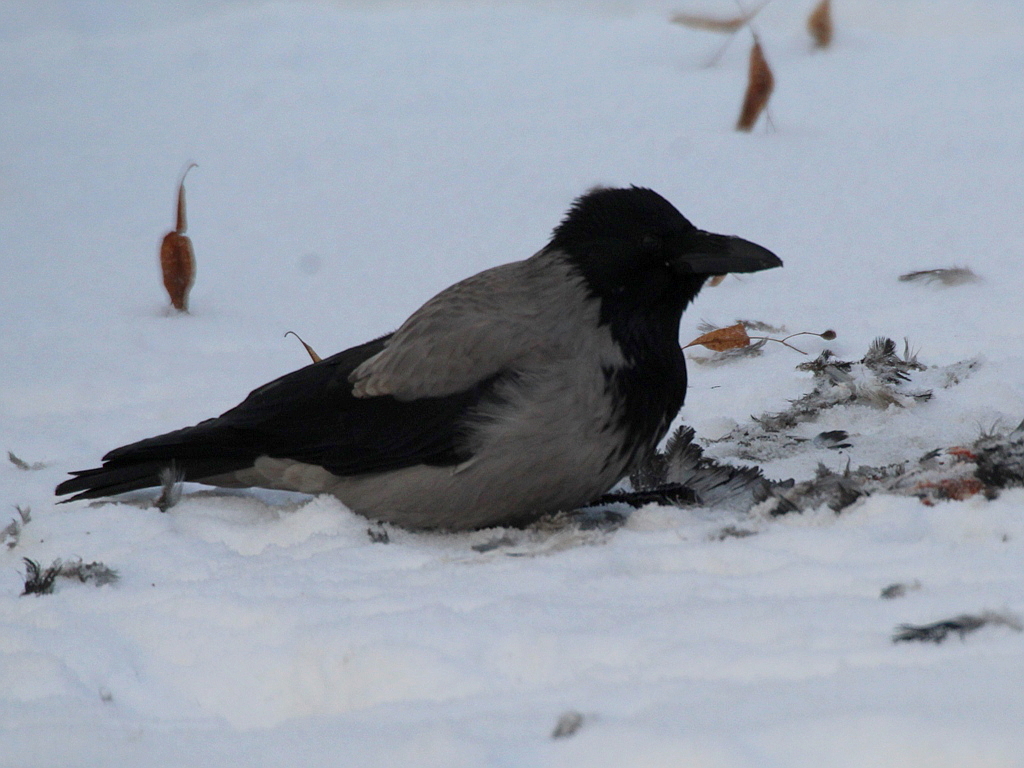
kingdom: Animalia
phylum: Chordata
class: Aves
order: Passeriformes
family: Corvidae
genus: Corvus
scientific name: Corvus cornix
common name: Hooded crow
